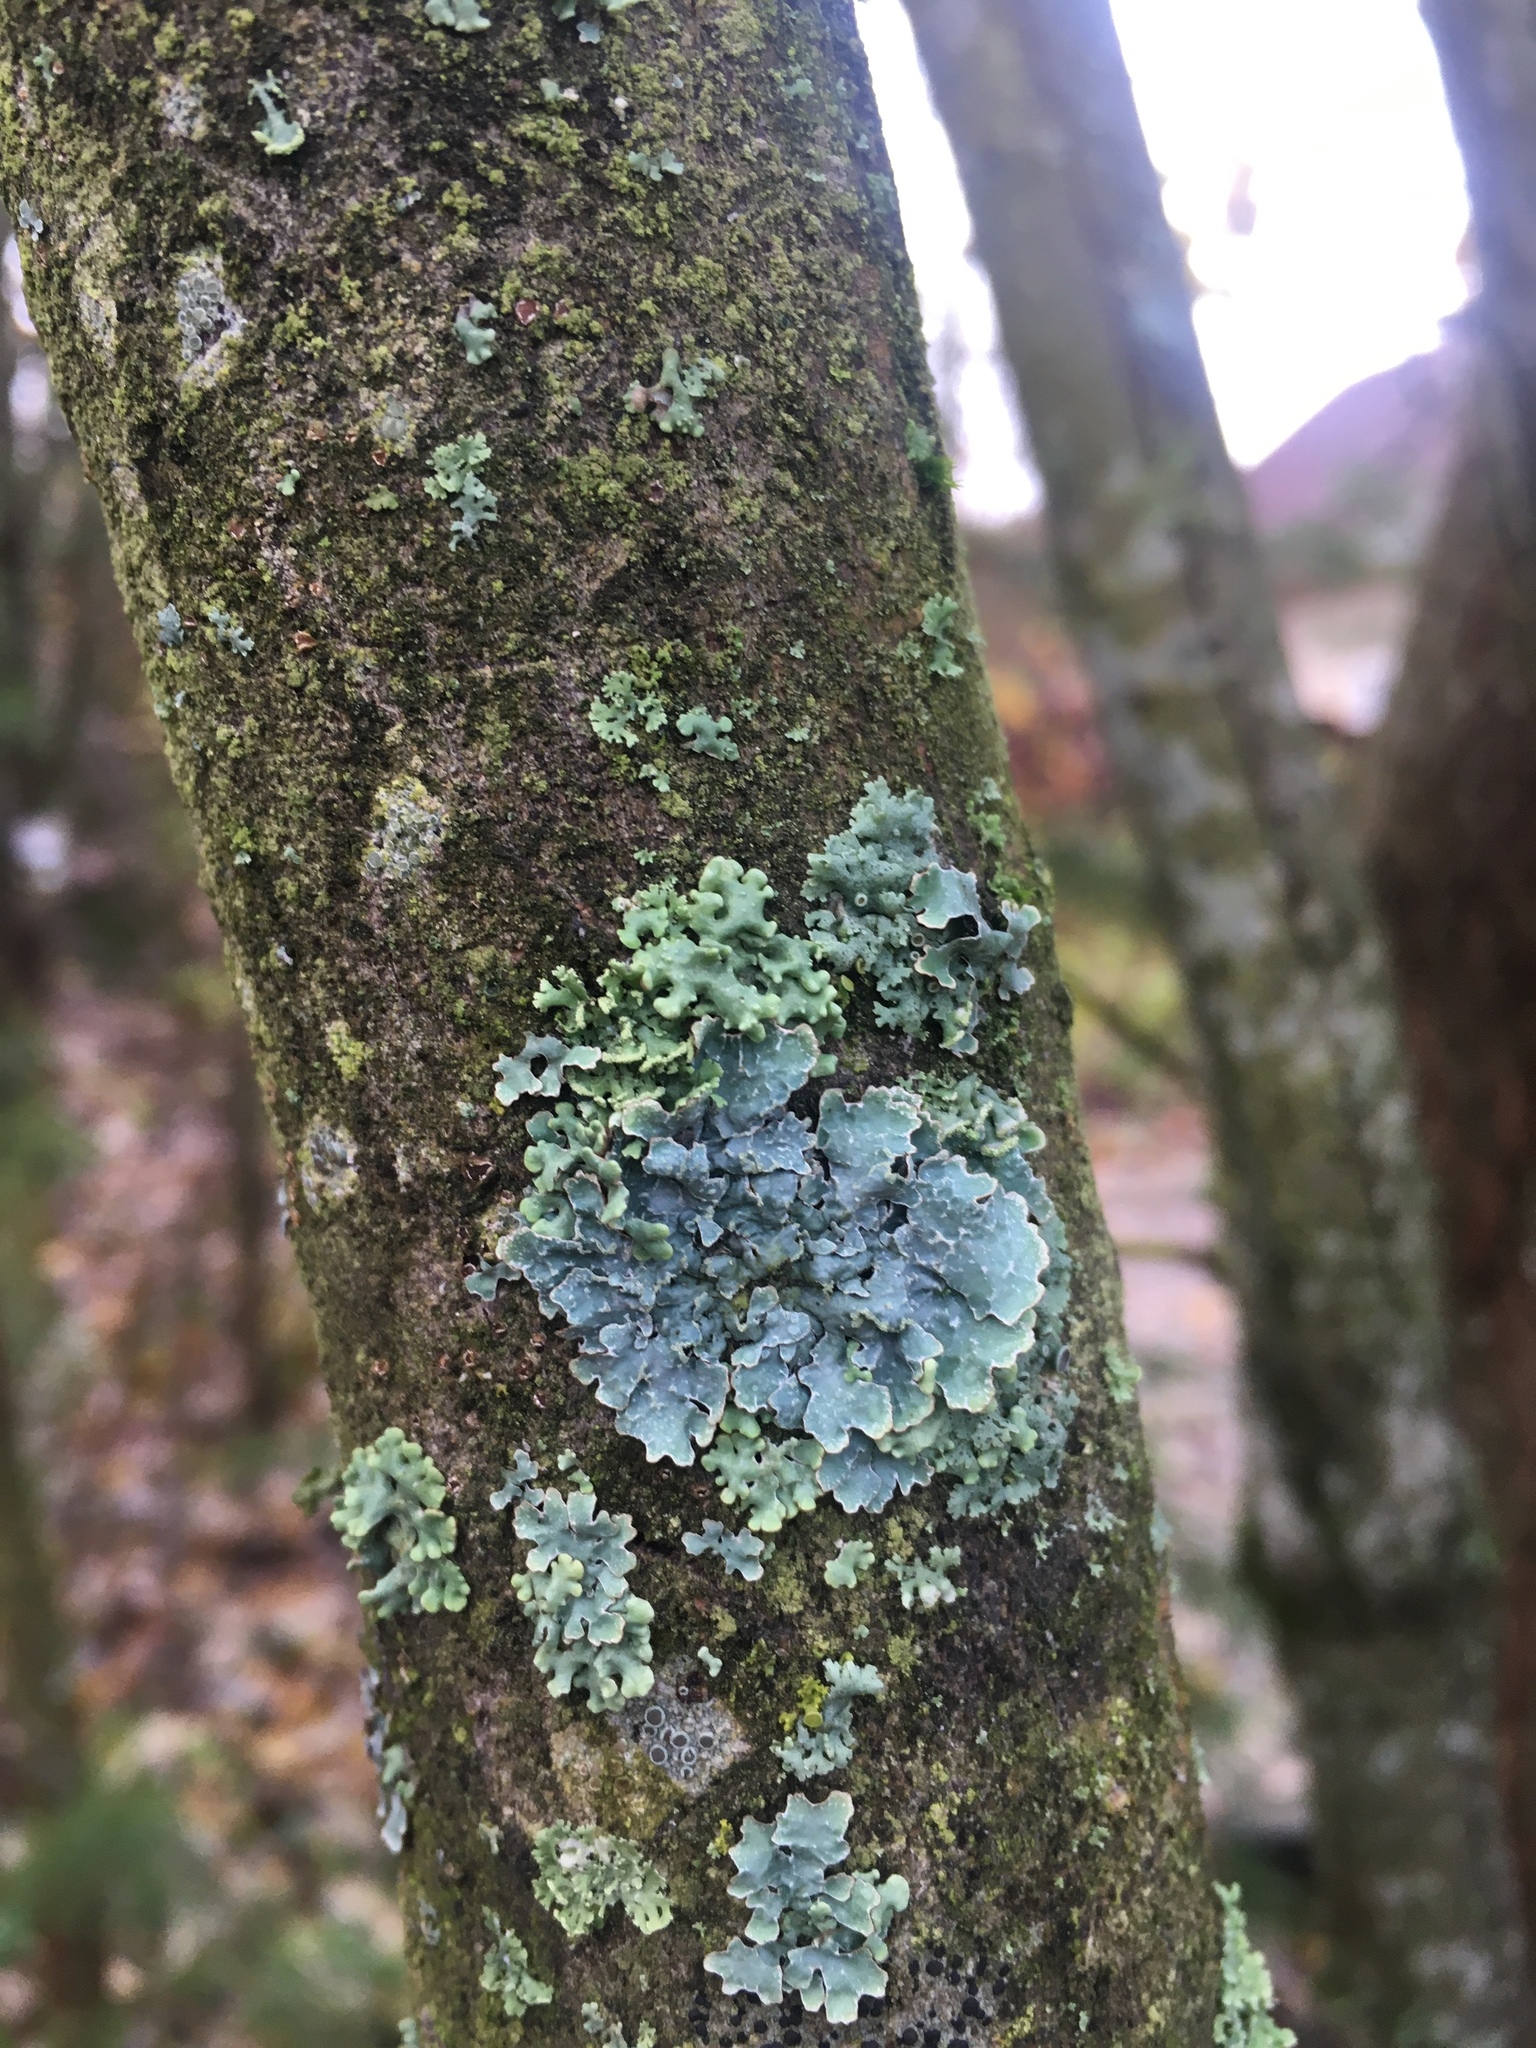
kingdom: Fungi
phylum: Ascomycota
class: Lecanoromycetes
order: Lecanorales
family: Parmeliaceae
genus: Parmelia
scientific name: Parmelia sulcata
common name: Netted shield lichen
